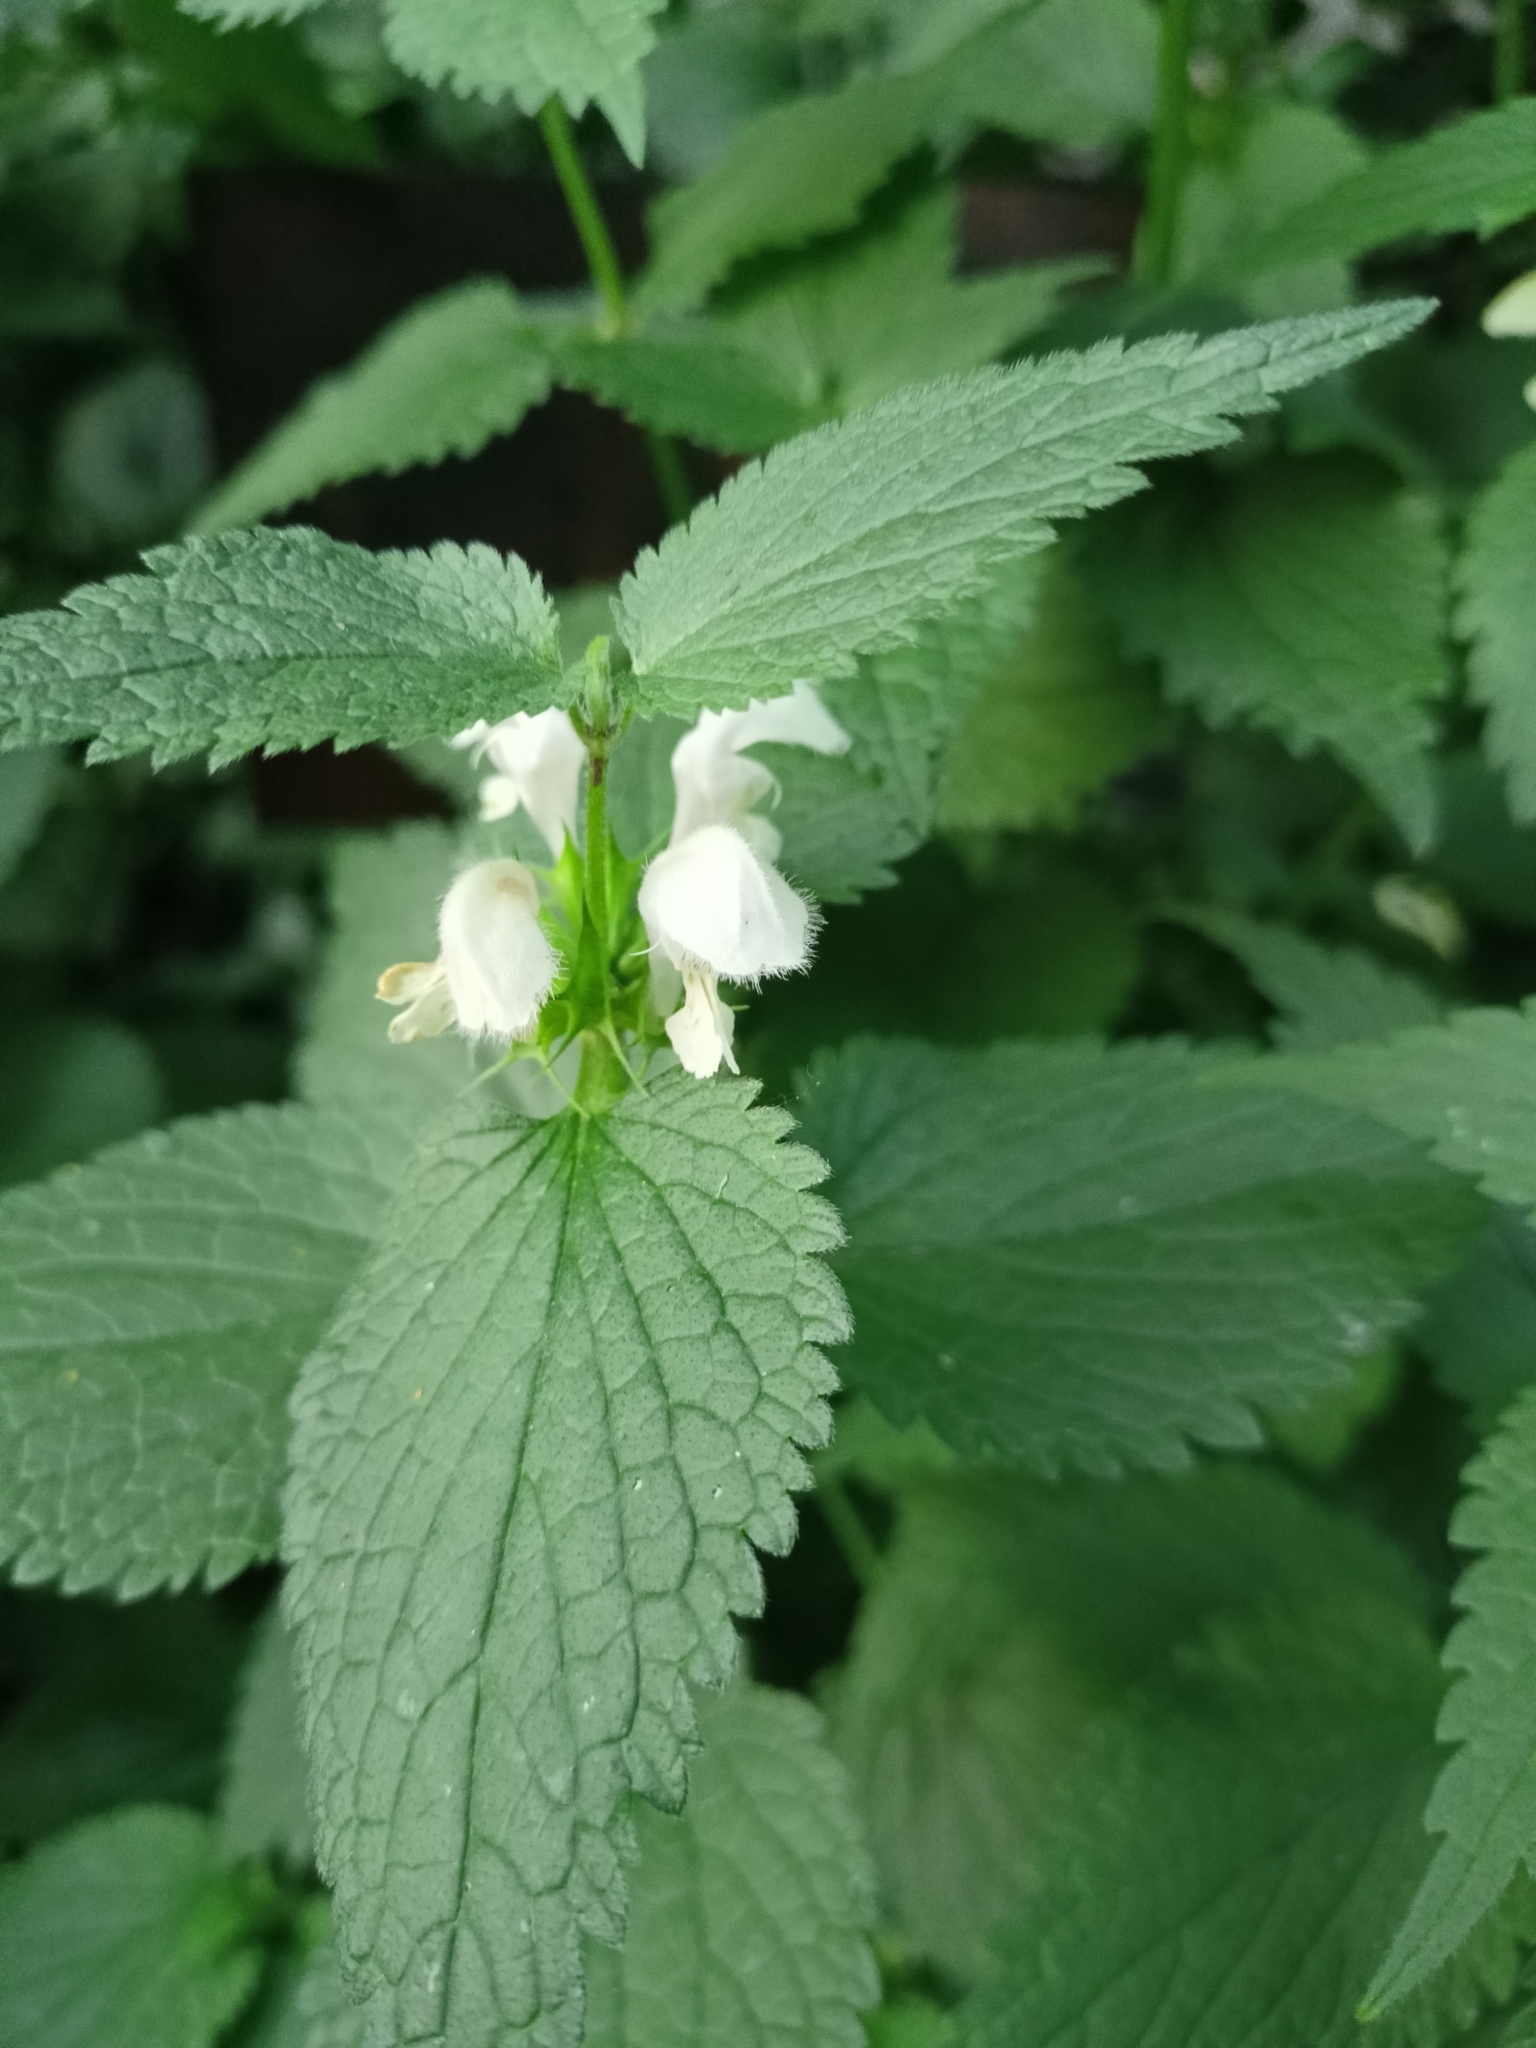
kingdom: Plantae
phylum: Tracheophyta
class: Magnoliopsida
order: Lamiales
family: Lamiaceae
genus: Lamium
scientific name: Lamium album
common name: White dead-nettle
